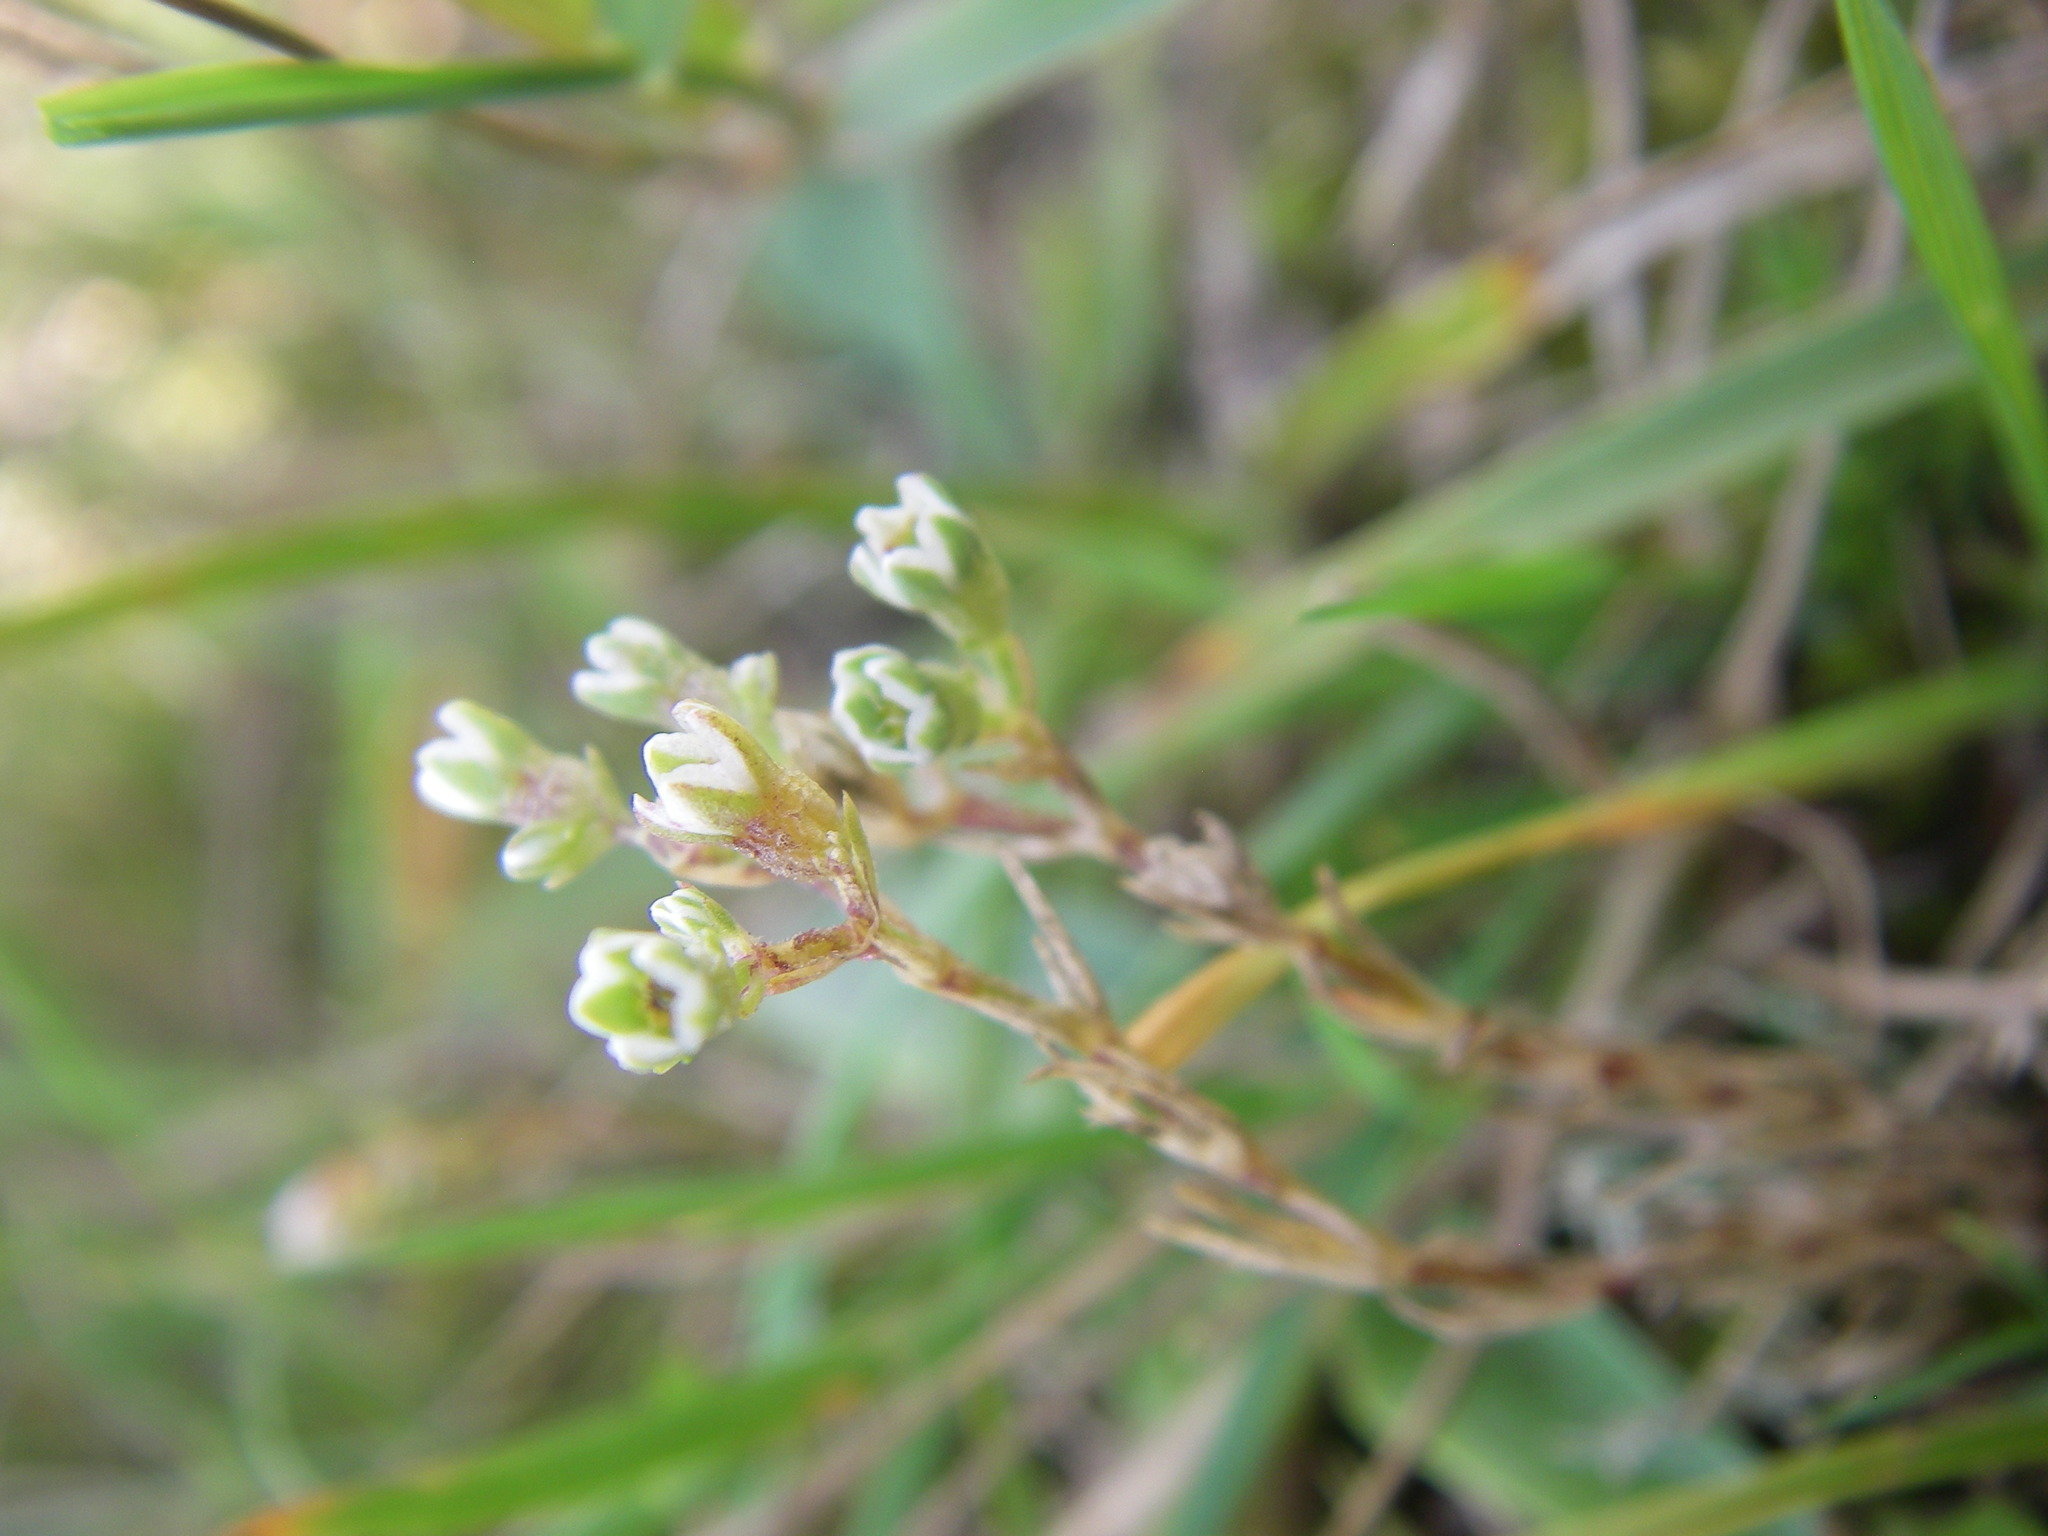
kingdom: Plantae
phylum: Tracheophyta
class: Magnoliopsida
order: Caryophyllales
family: Caryophyllaceae
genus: Scleranthus
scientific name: Scleranthus perennis
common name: Perennial knawel
